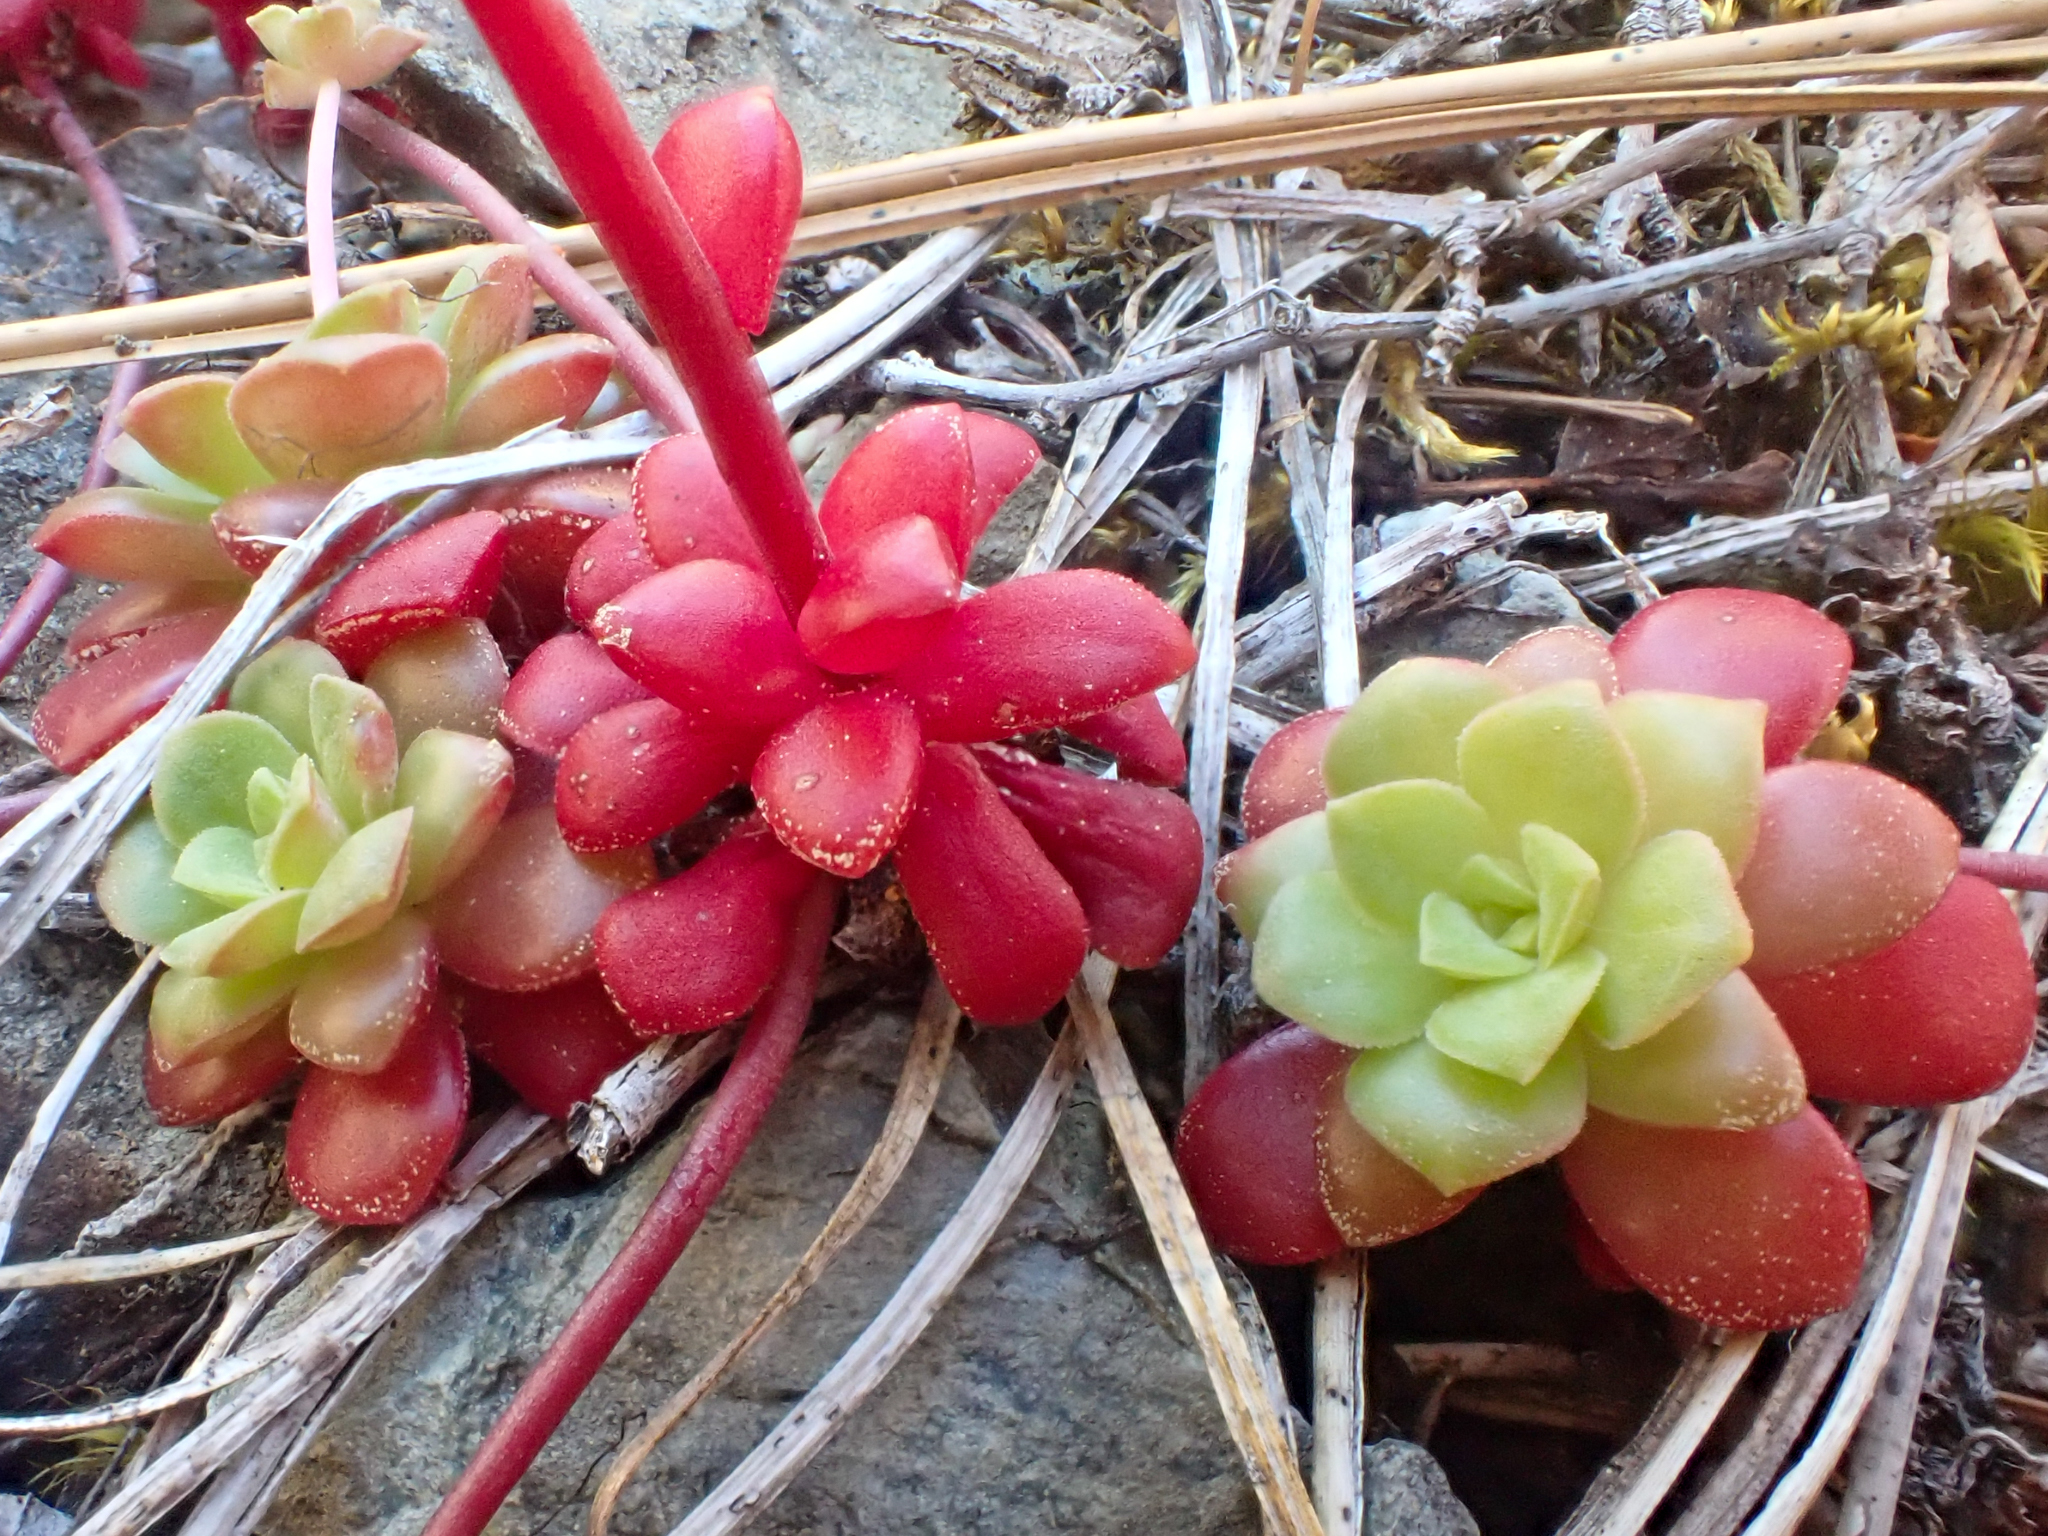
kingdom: Plantae
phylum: Tracheophyta
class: Magnoliopsida
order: Saxifragales
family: Crassulaceae
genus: Sedum
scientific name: Sedum spathulifolium
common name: Colorado stonecrop
